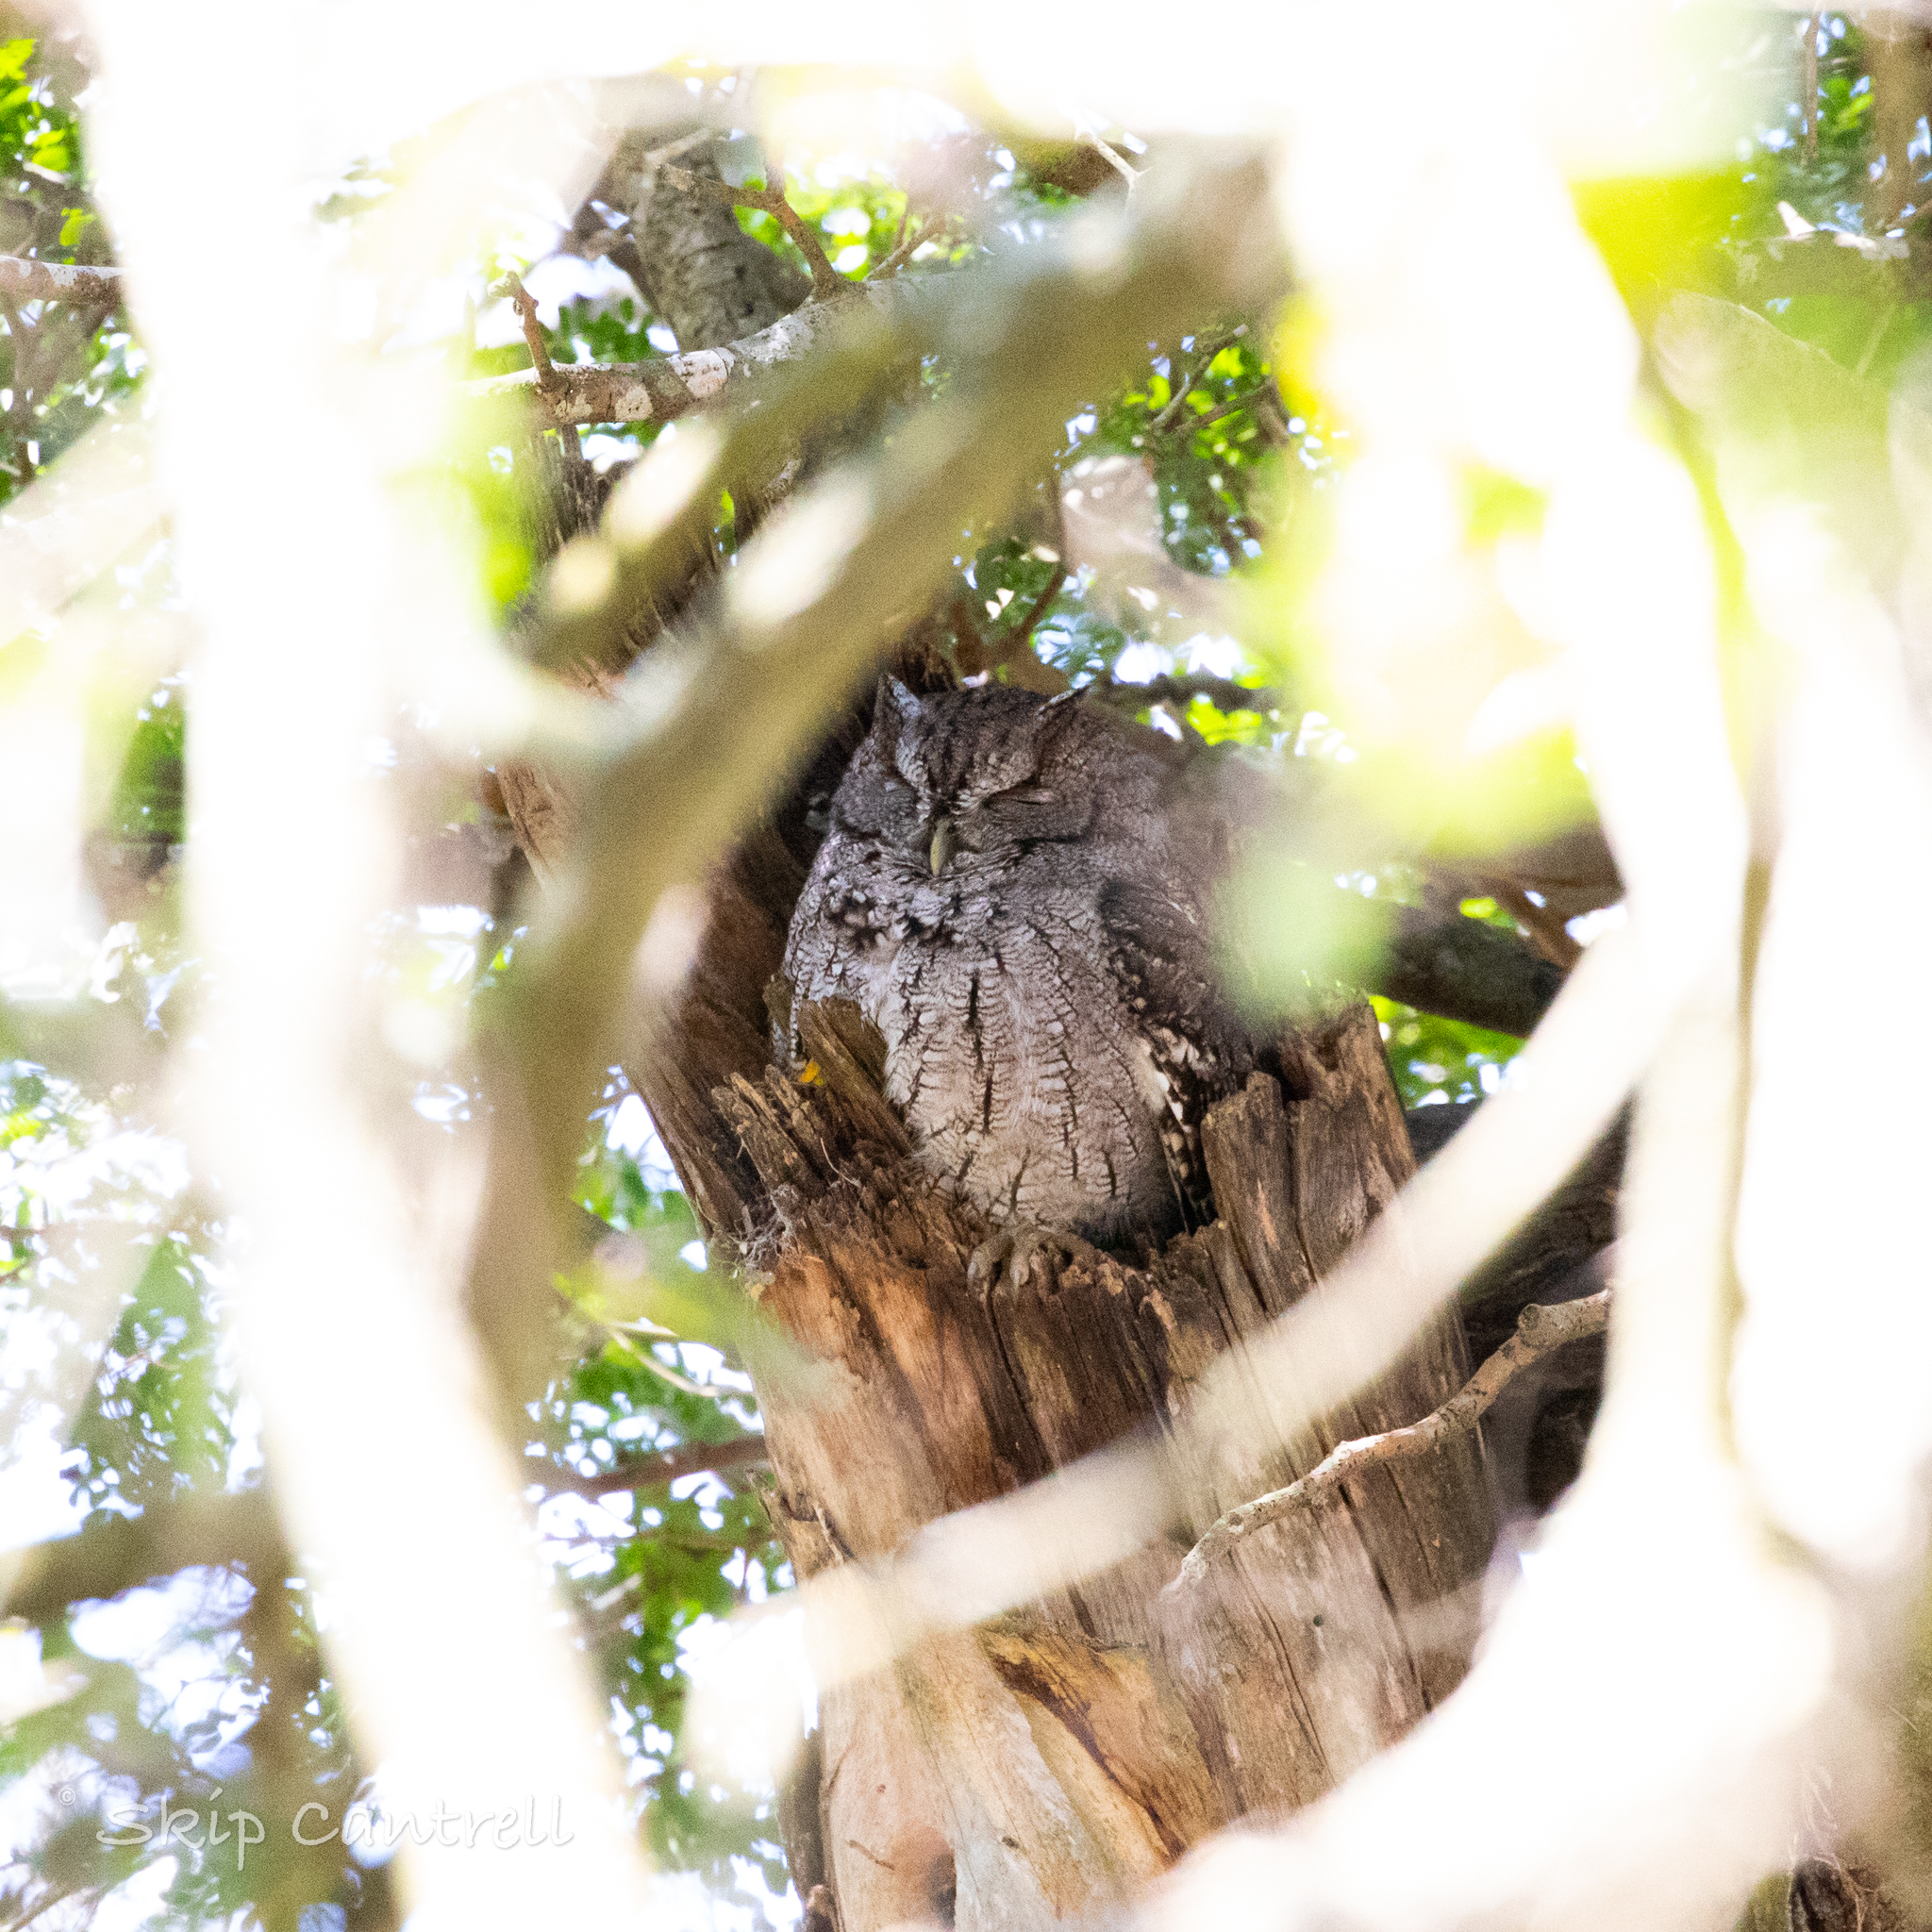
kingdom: Animalia
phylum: Chordata
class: Aves
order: Strigiformes
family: Strigidae
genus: Megascops
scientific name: Megascops asio
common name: Eastern screech-owl
